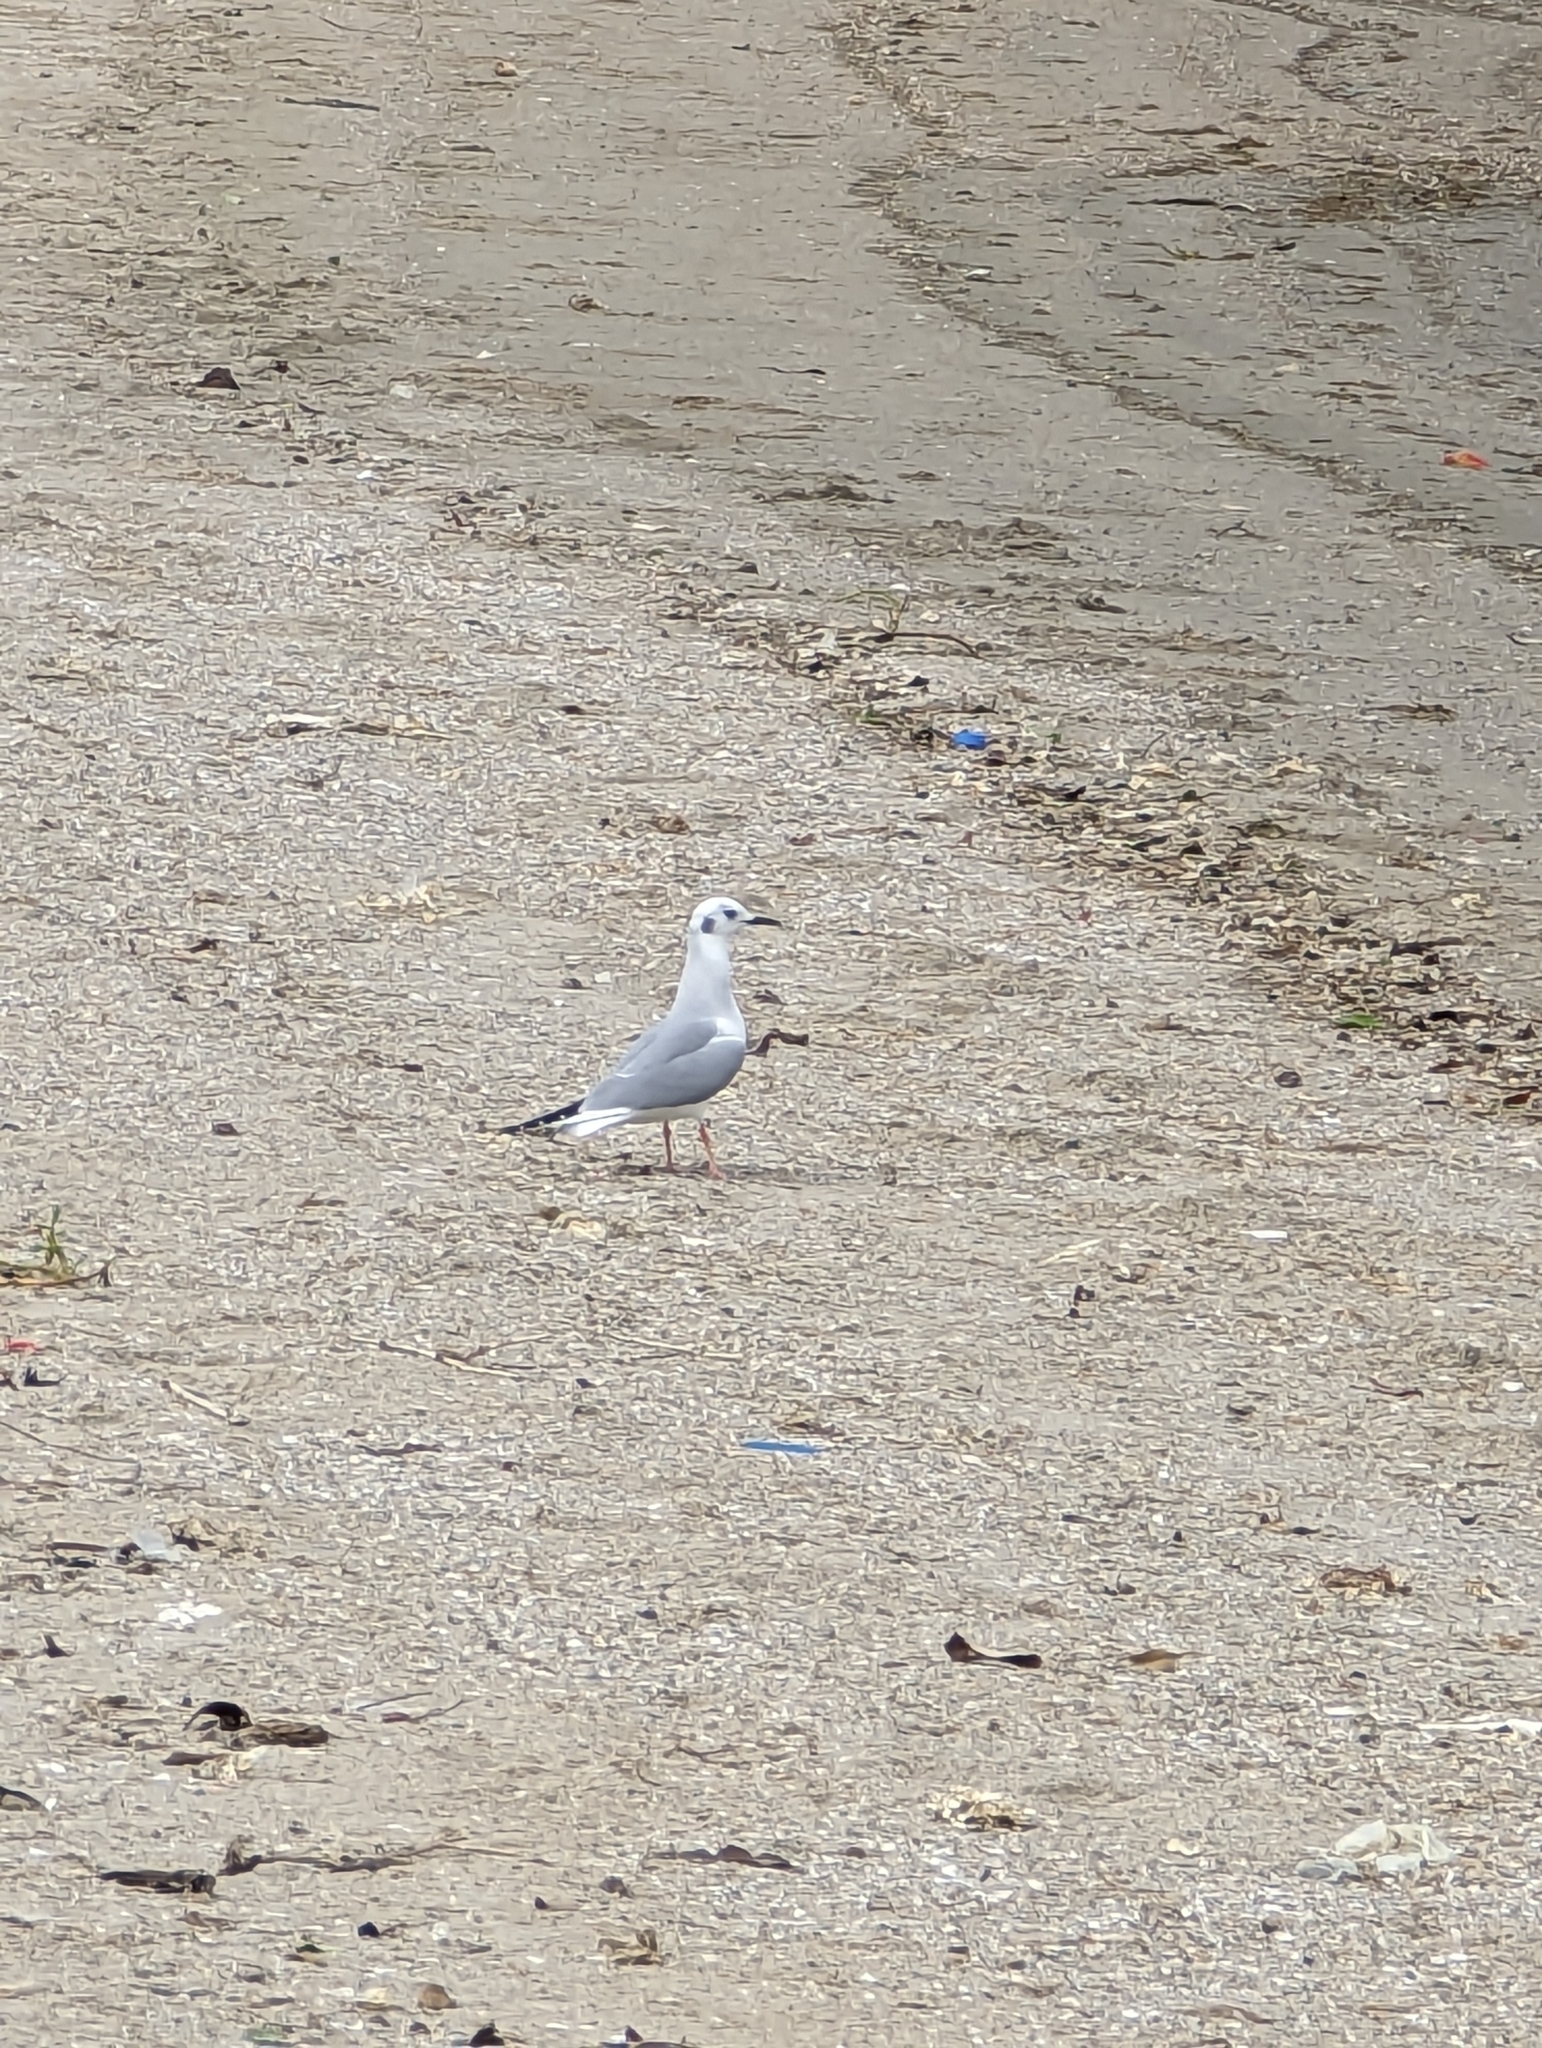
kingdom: Animalia
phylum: Chordata
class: Aves
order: Charadriiformes
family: Laridae
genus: Chroicocephalus
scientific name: Chroicocephalus philadelphia
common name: Bonaparte's gull
